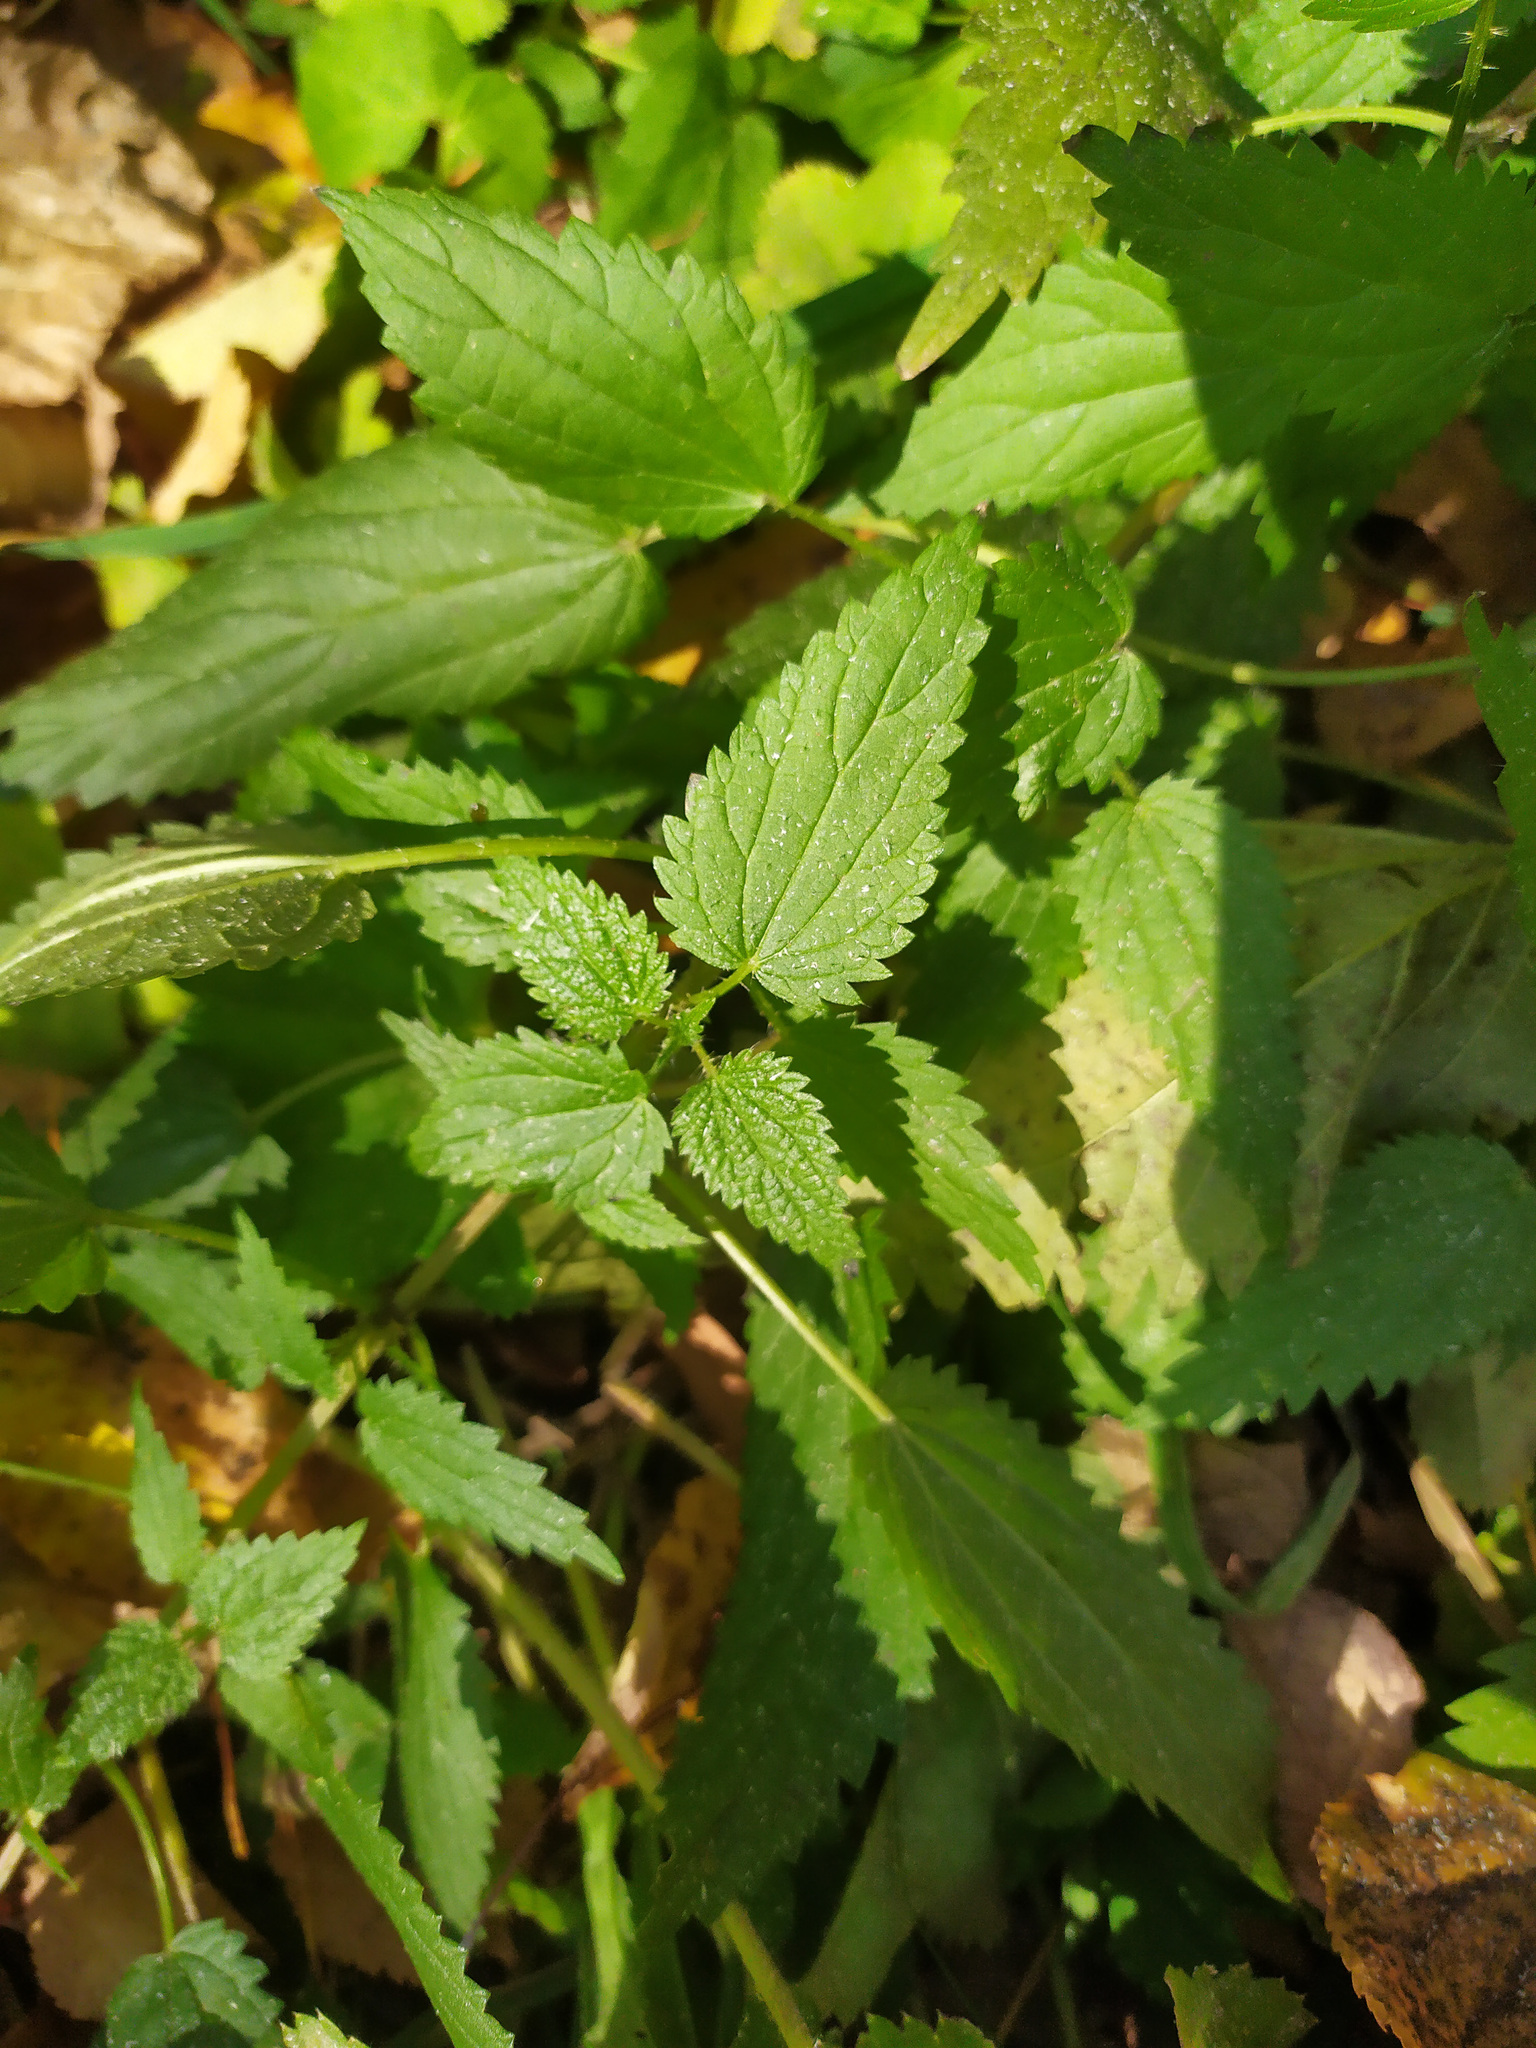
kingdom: Plantae
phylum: Tracheophyta
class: Magnoliopsida
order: Rosales
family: Urticaceae
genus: Urtica
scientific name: Urtica dioica
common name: Common nettle
